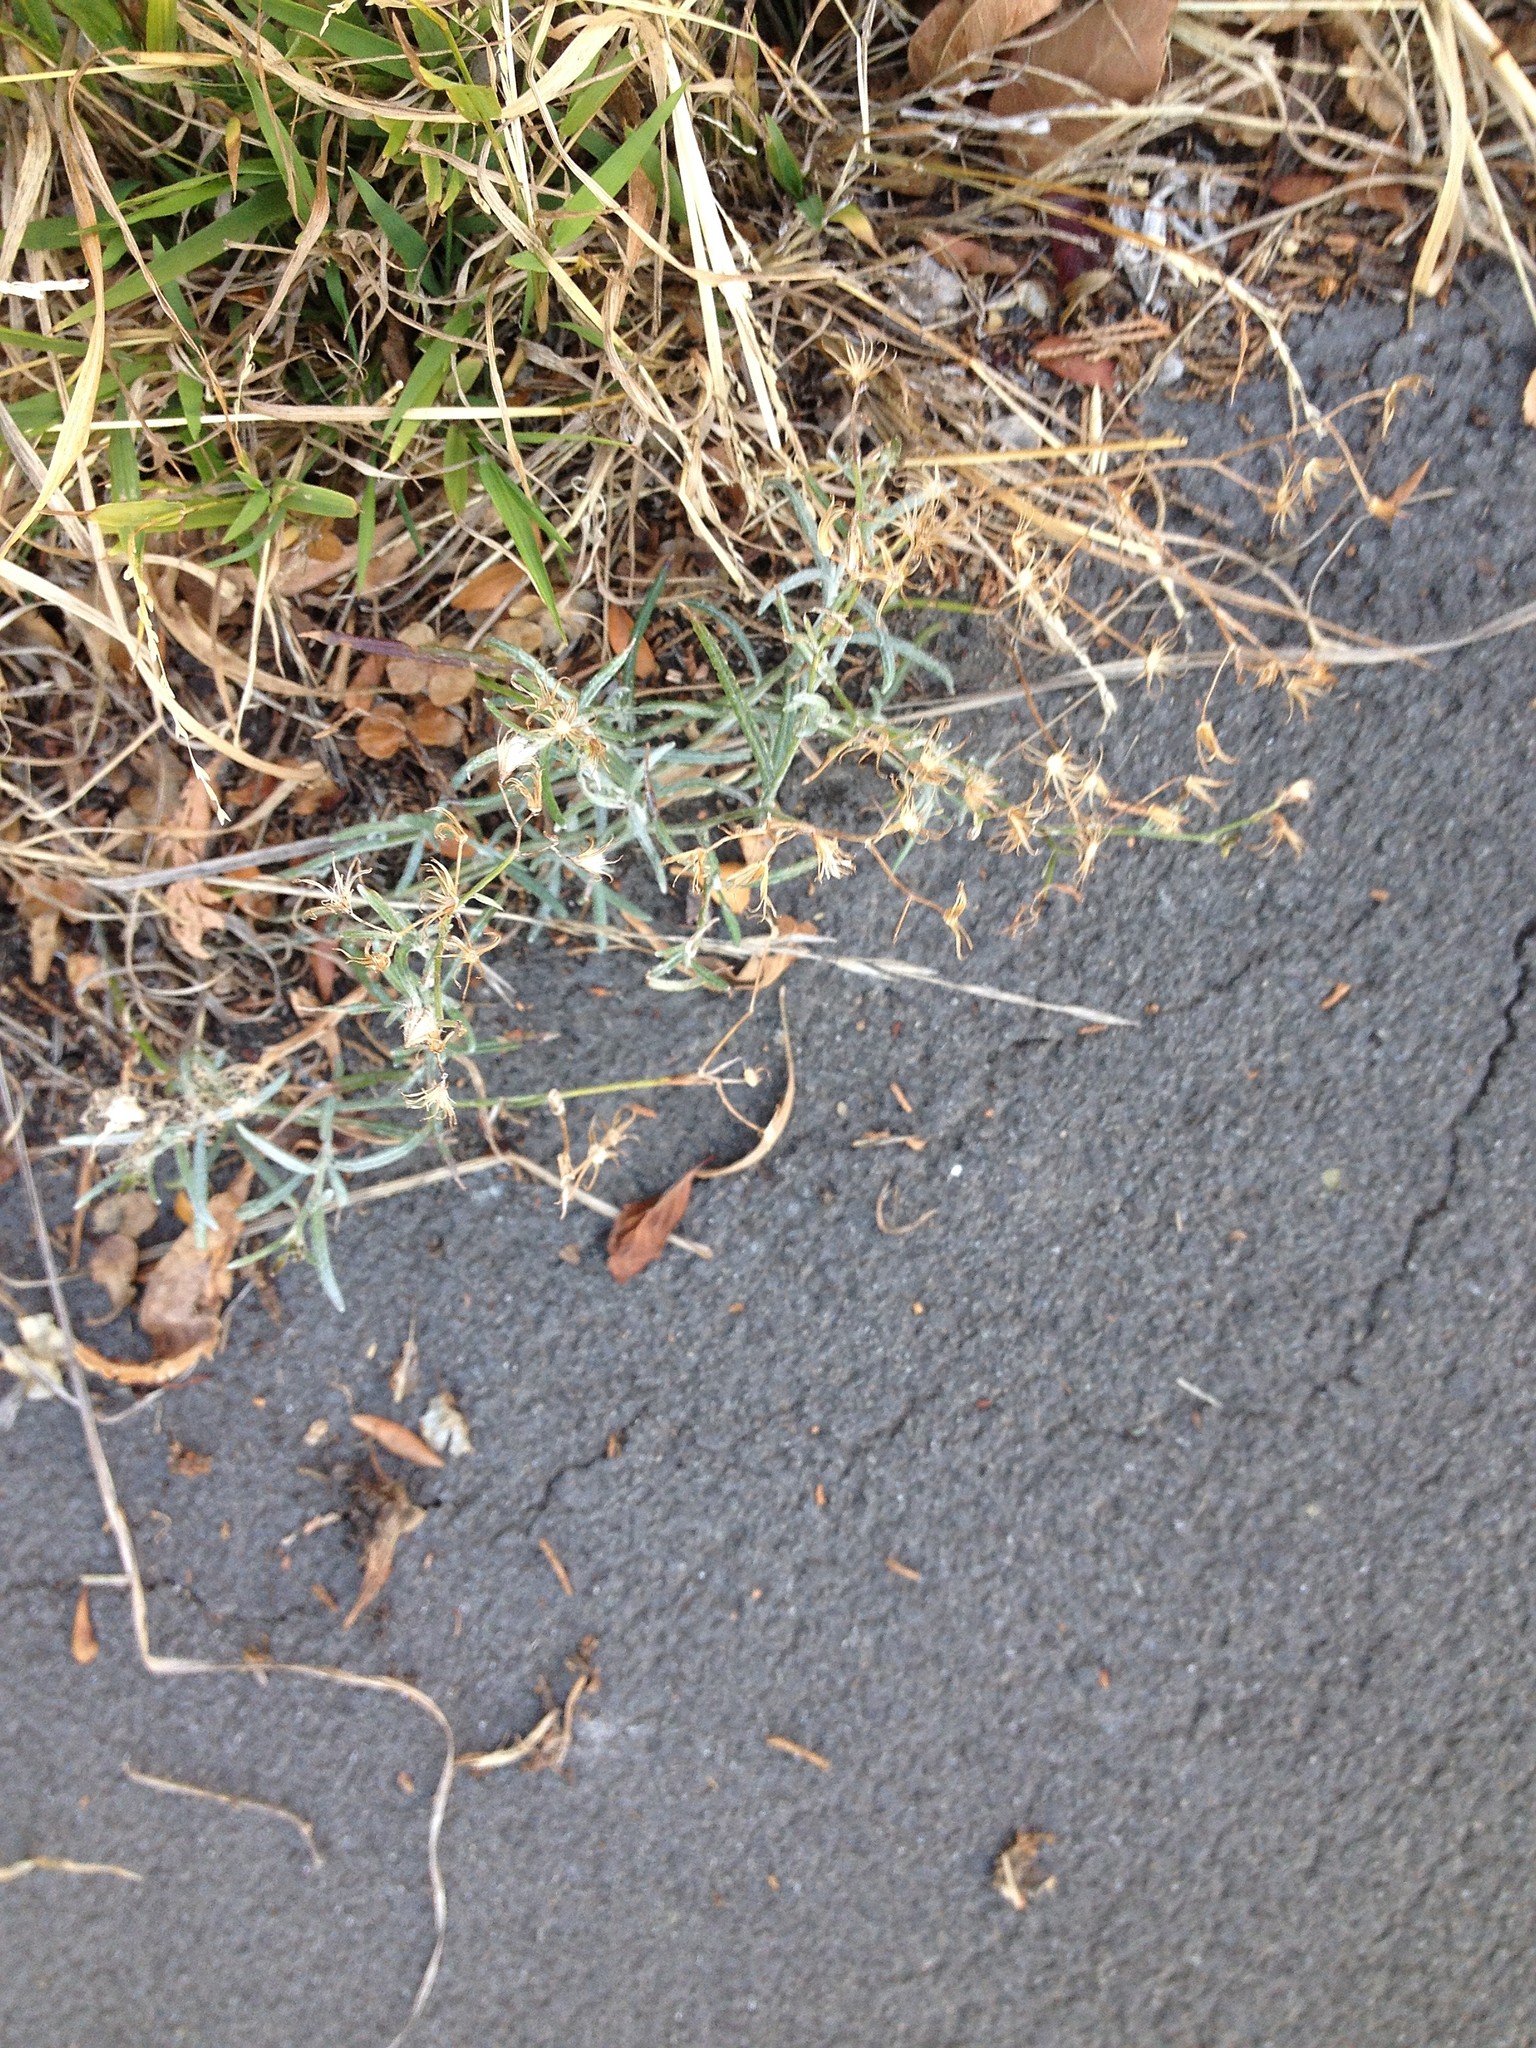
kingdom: Plantae
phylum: Tracheophyta
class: Magnoliopsida
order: Asterales
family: Asteraceae
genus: Senecio
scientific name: Senecio quadridentatus
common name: Cotton fireweed
